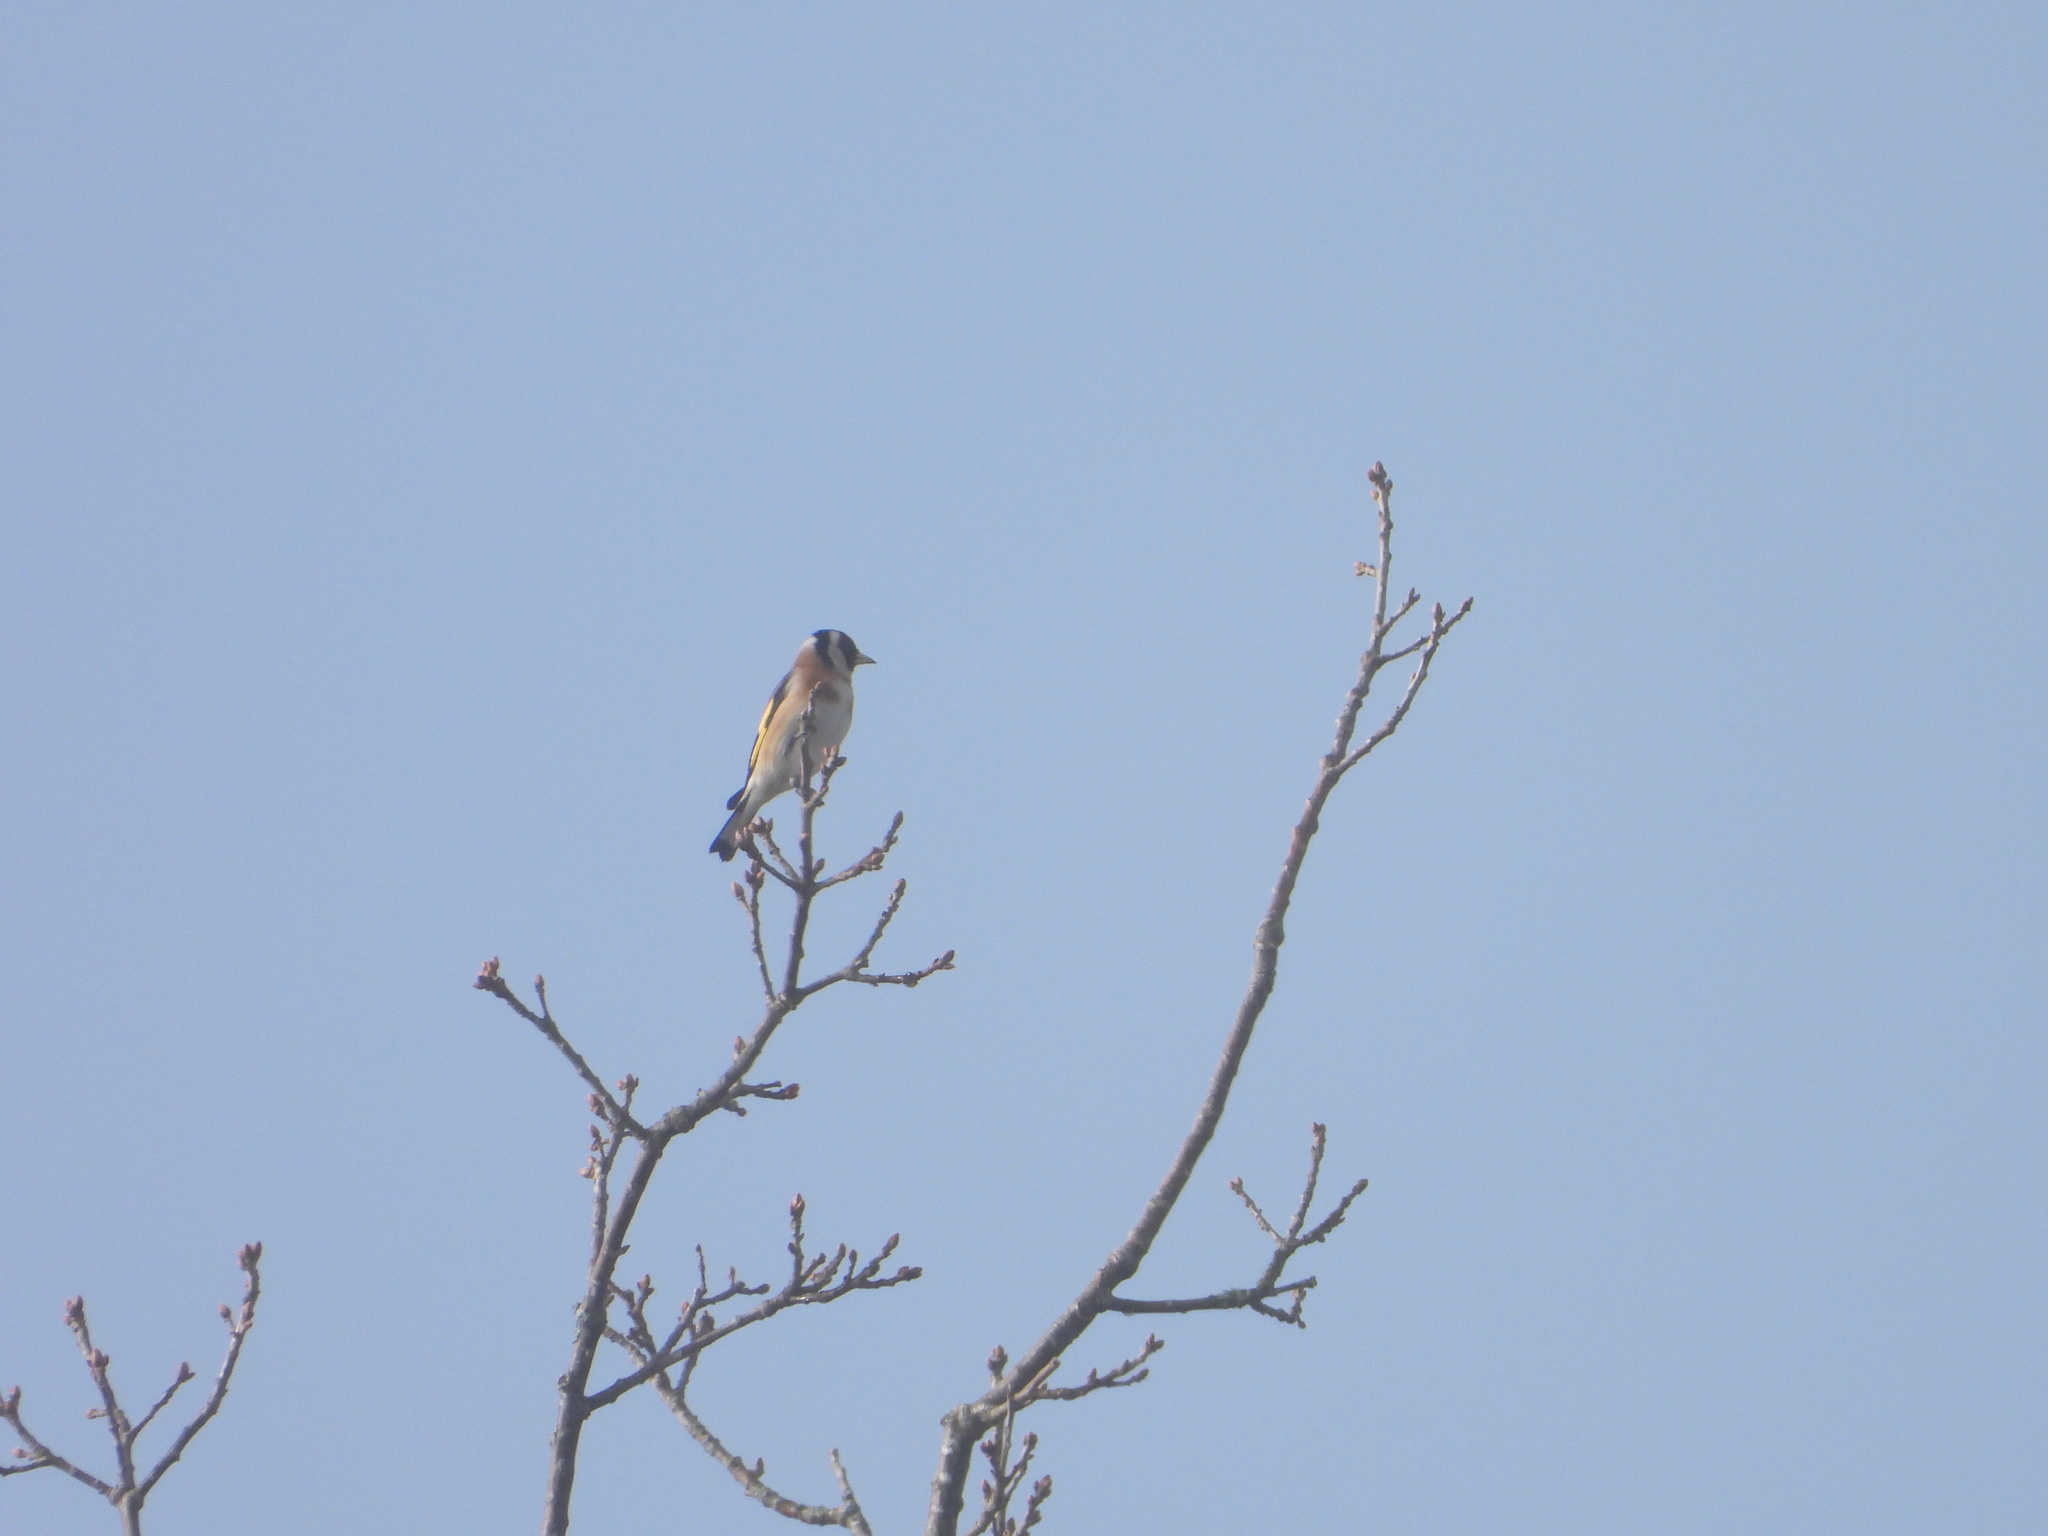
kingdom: Animalia
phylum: Chordata
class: Aves
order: Passeriformes
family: Fringillidae
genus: Carduelis
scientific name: Carduelis carduelis
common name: European goldfinch
